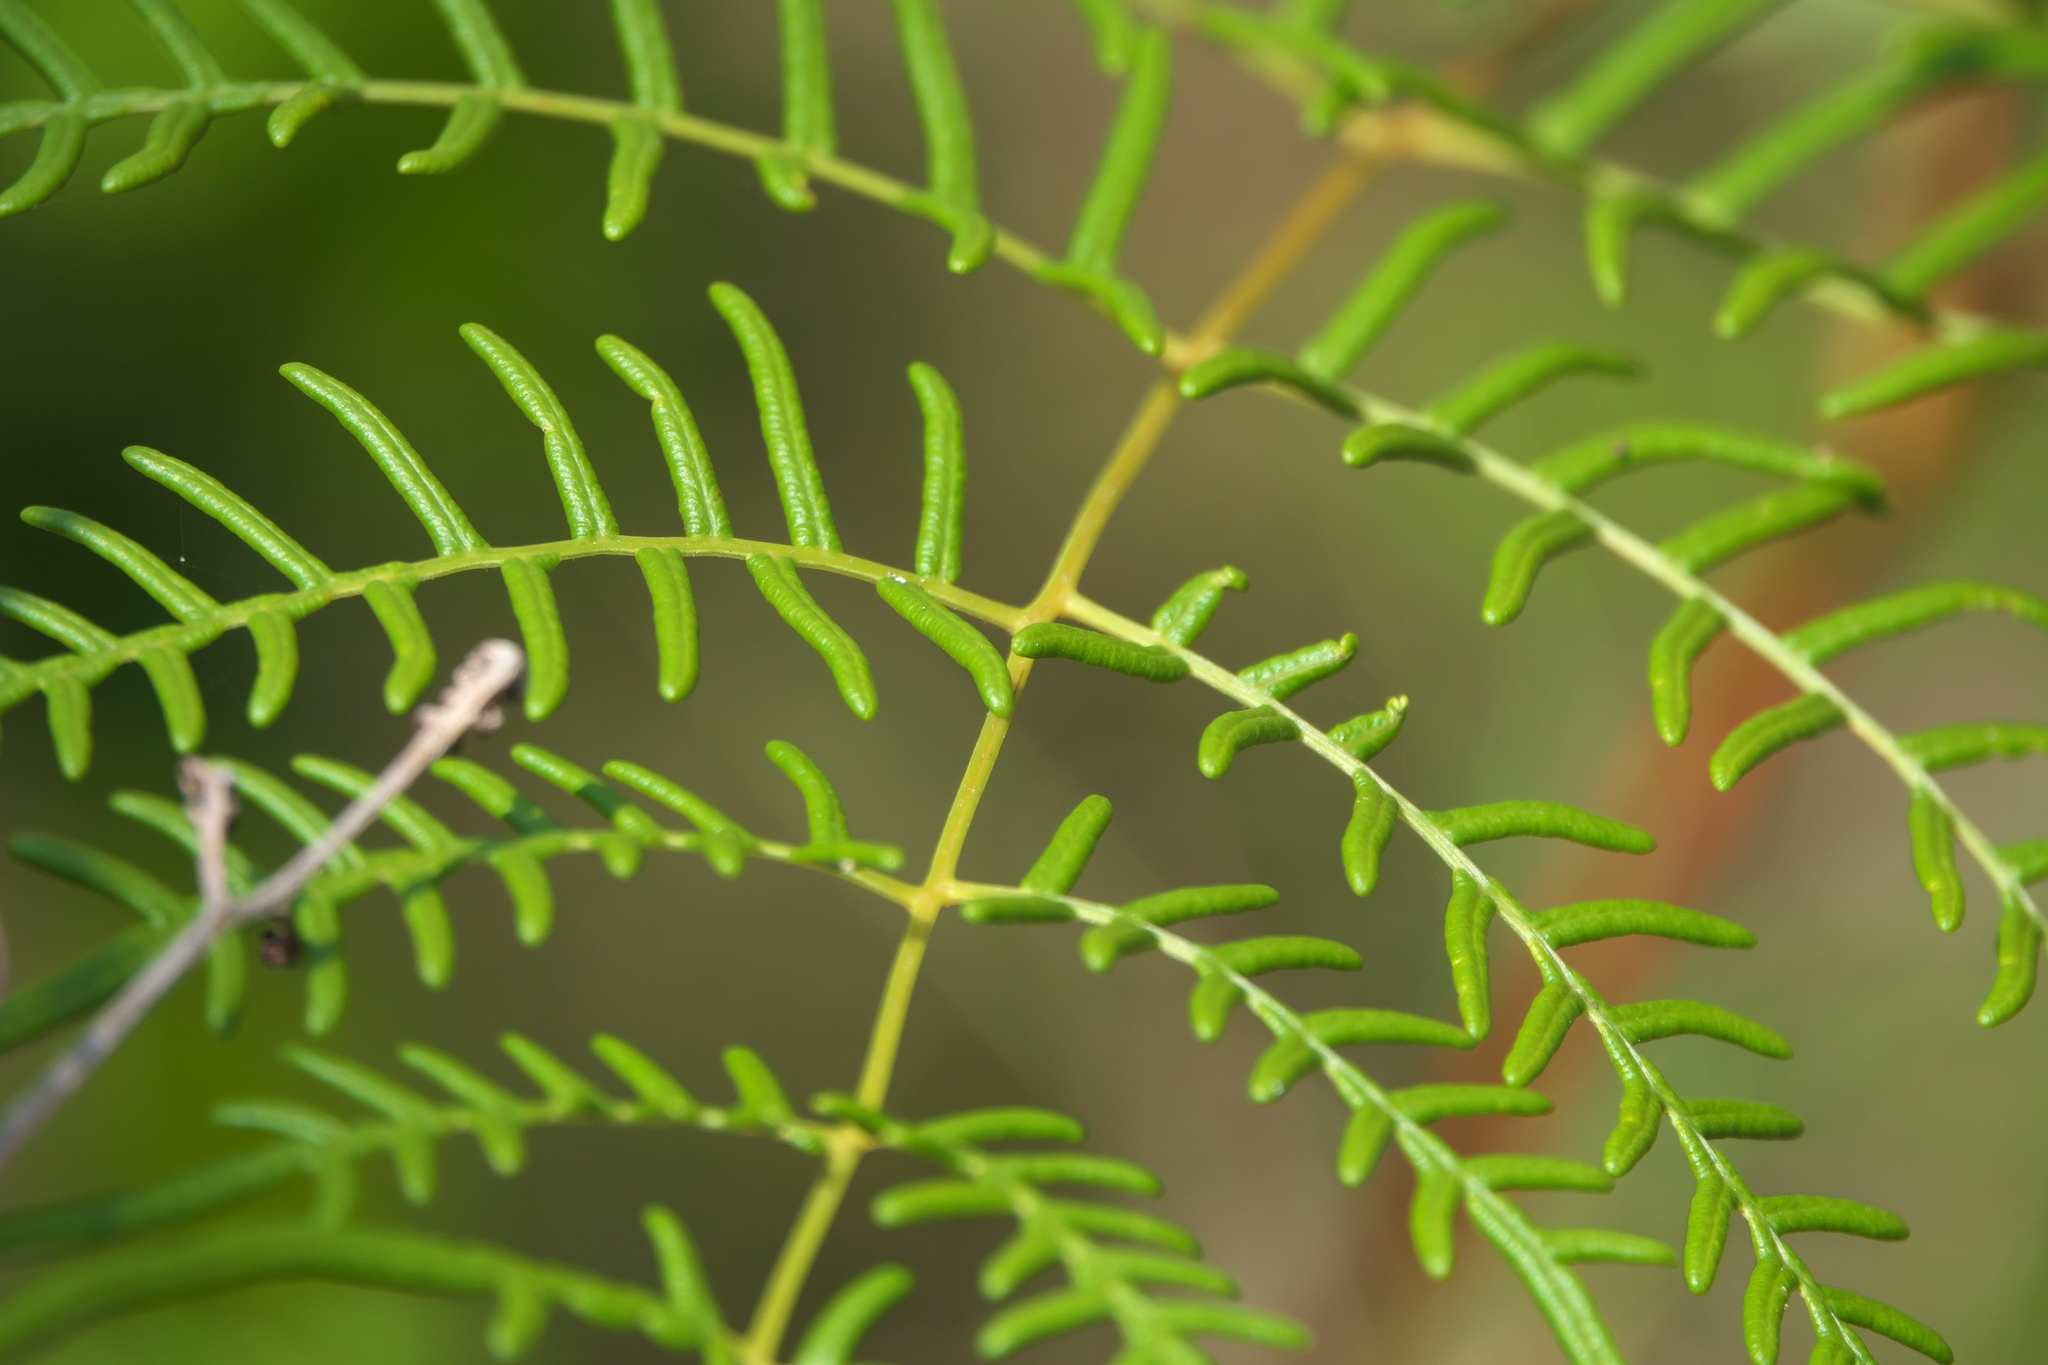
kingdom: Plantae
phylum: Tracheophyta
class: Polypodiopsida
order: Polypodiales
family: Dennstaedtiaceae
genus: Pteridium
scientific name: Pteridium caudatum
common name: Southern bracken fern
